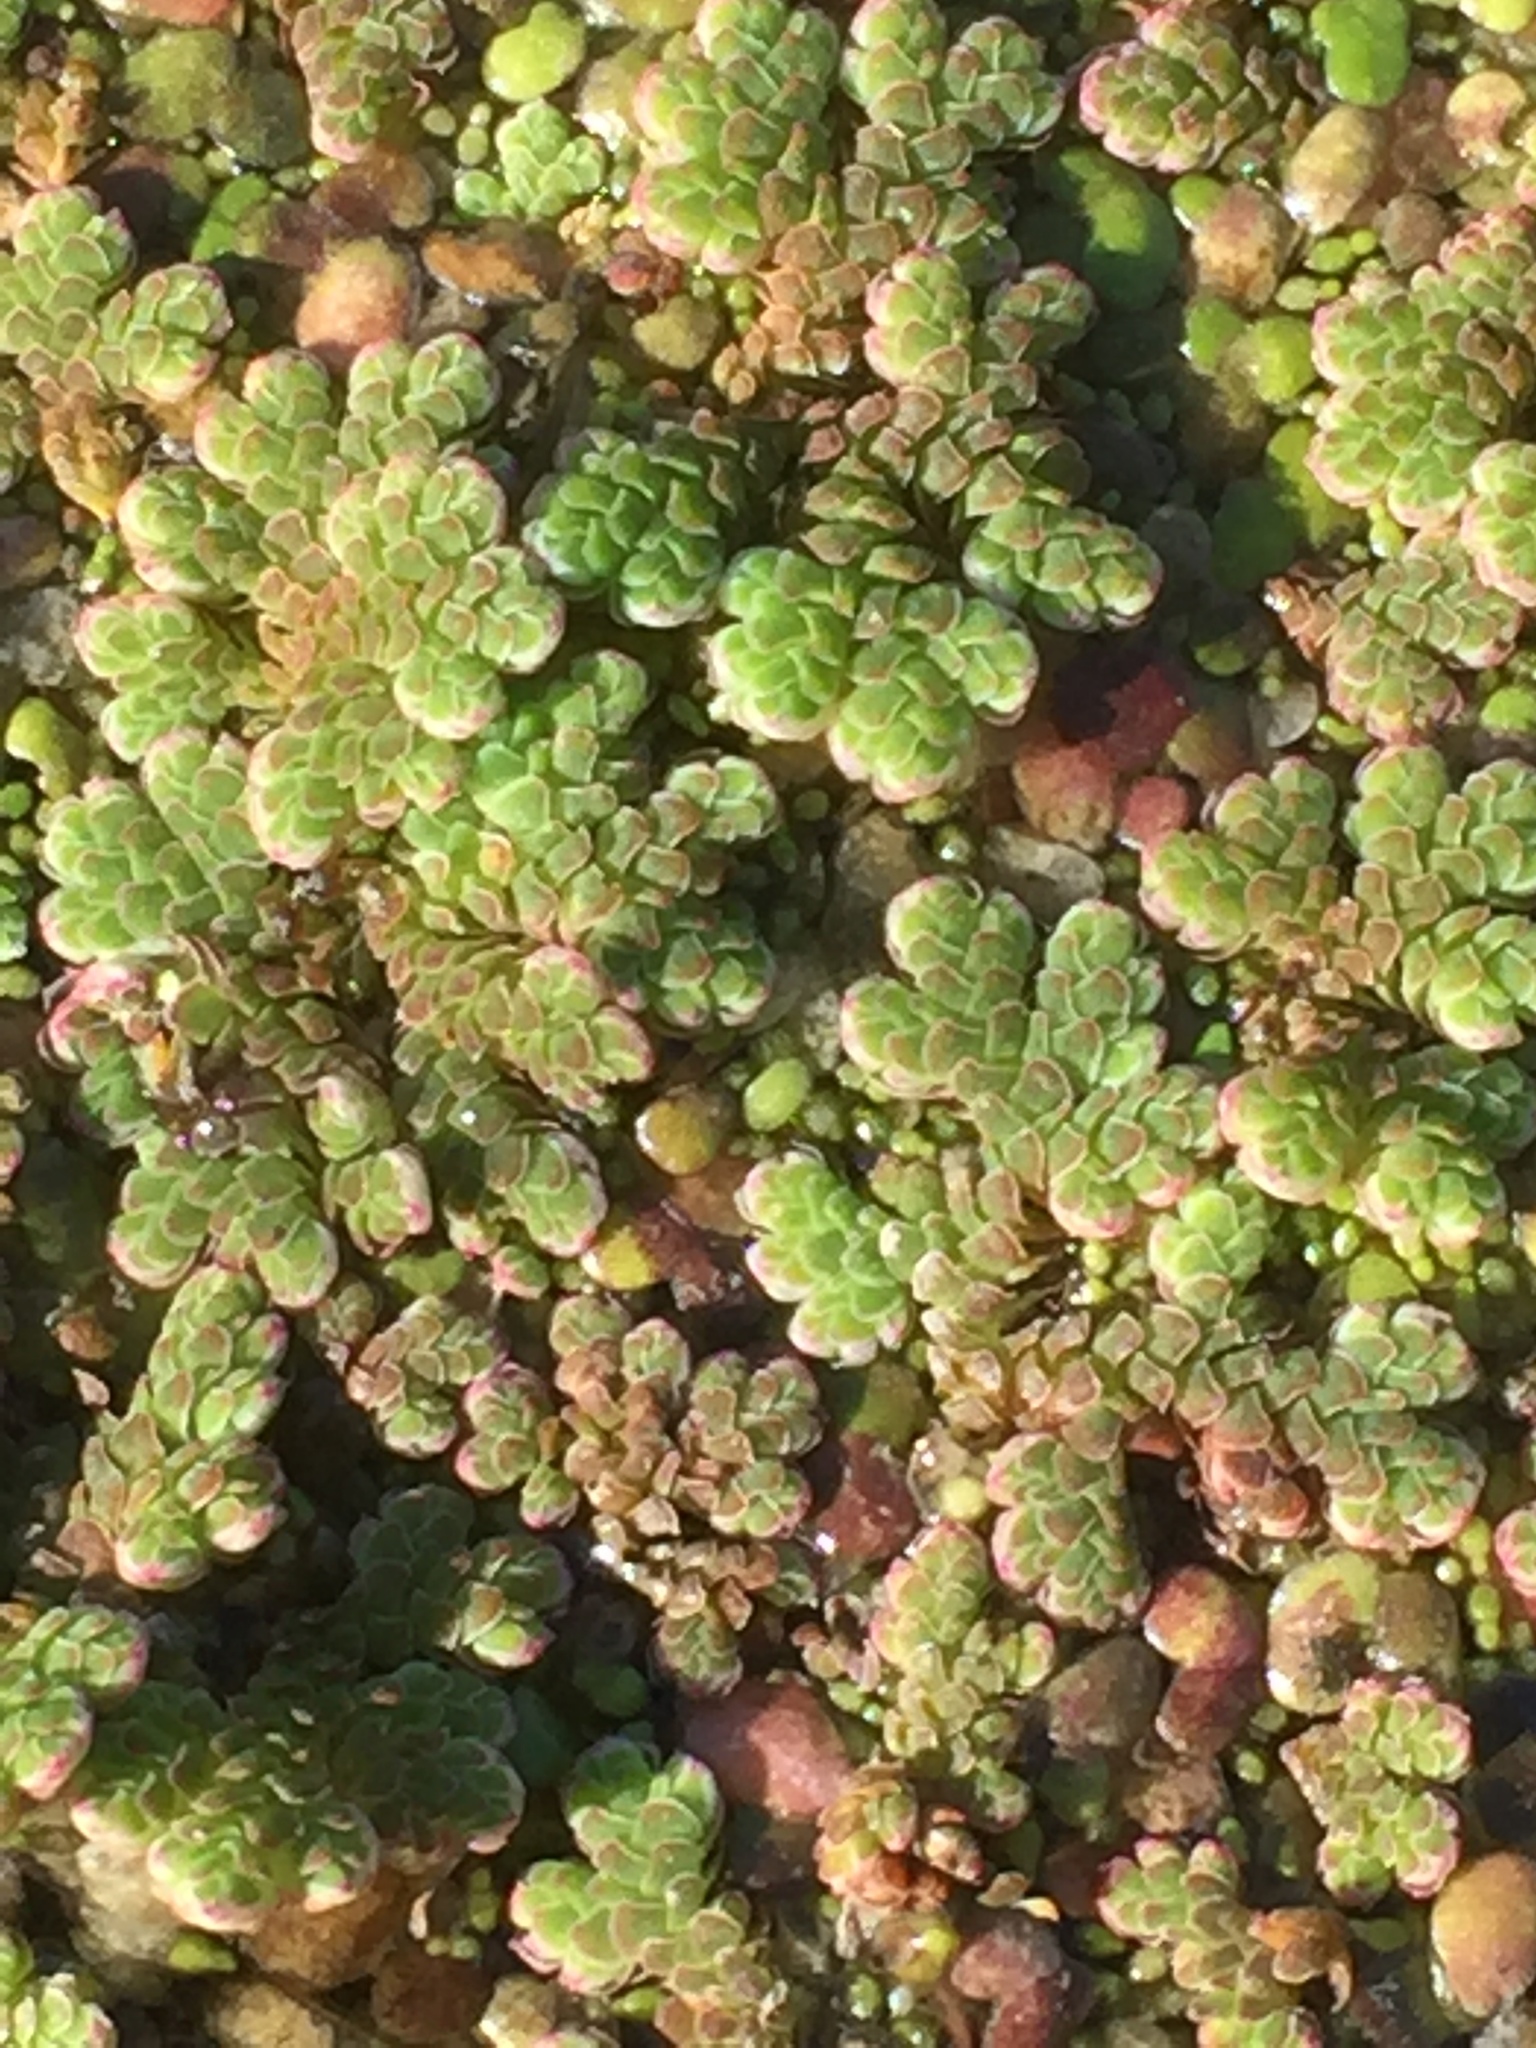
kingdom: Plantae
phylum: Tracheophyta
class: Polypodiopsida
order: Salviniales
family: Salviniaceae
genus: Azolla
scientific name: Azolla filiculoides
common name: Water fern
